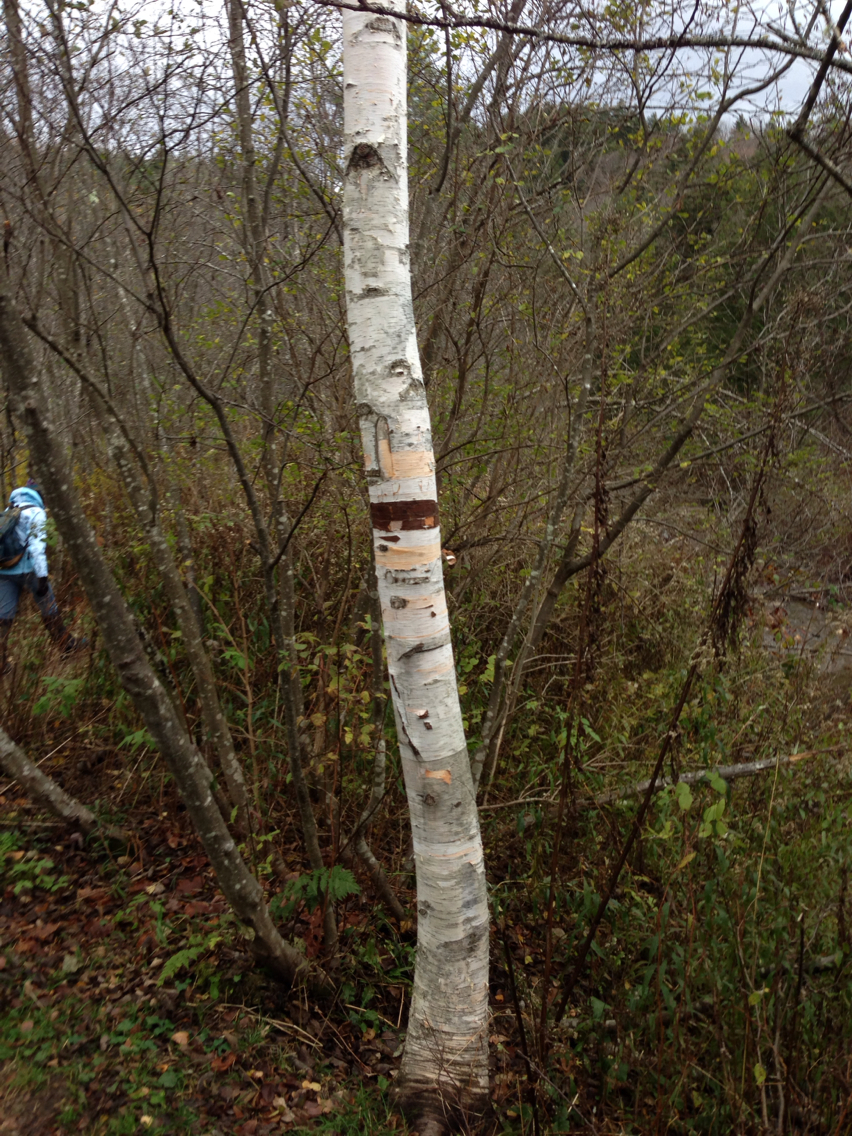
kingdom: Plantae
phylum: Tracheophyta
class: Magnoliopsida
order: Fagales
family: Betulaceae
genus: Betula
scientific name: Betula papyrifera
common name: Paper birch
